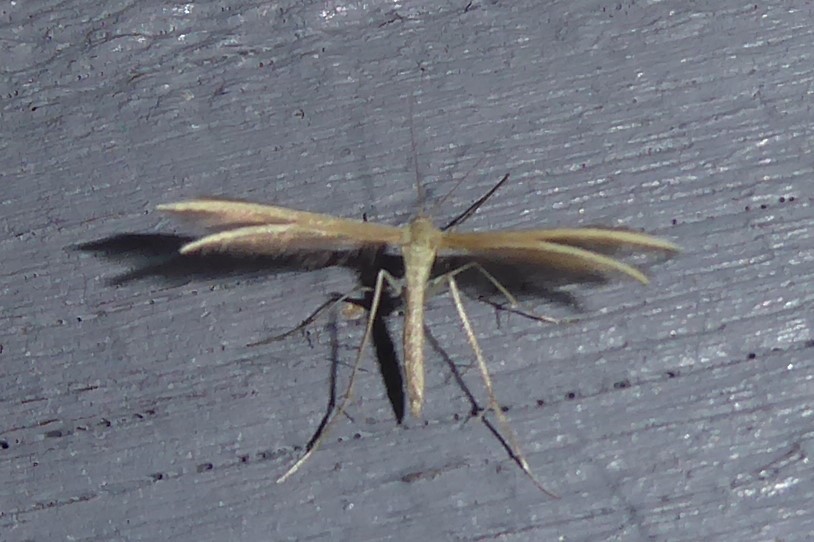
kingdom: Animalia
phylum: Arthropoda
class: Insecta
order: Lepidoptera
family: Pterophoridae
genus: Pterophorus
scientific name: Pterophorus innotatalis
